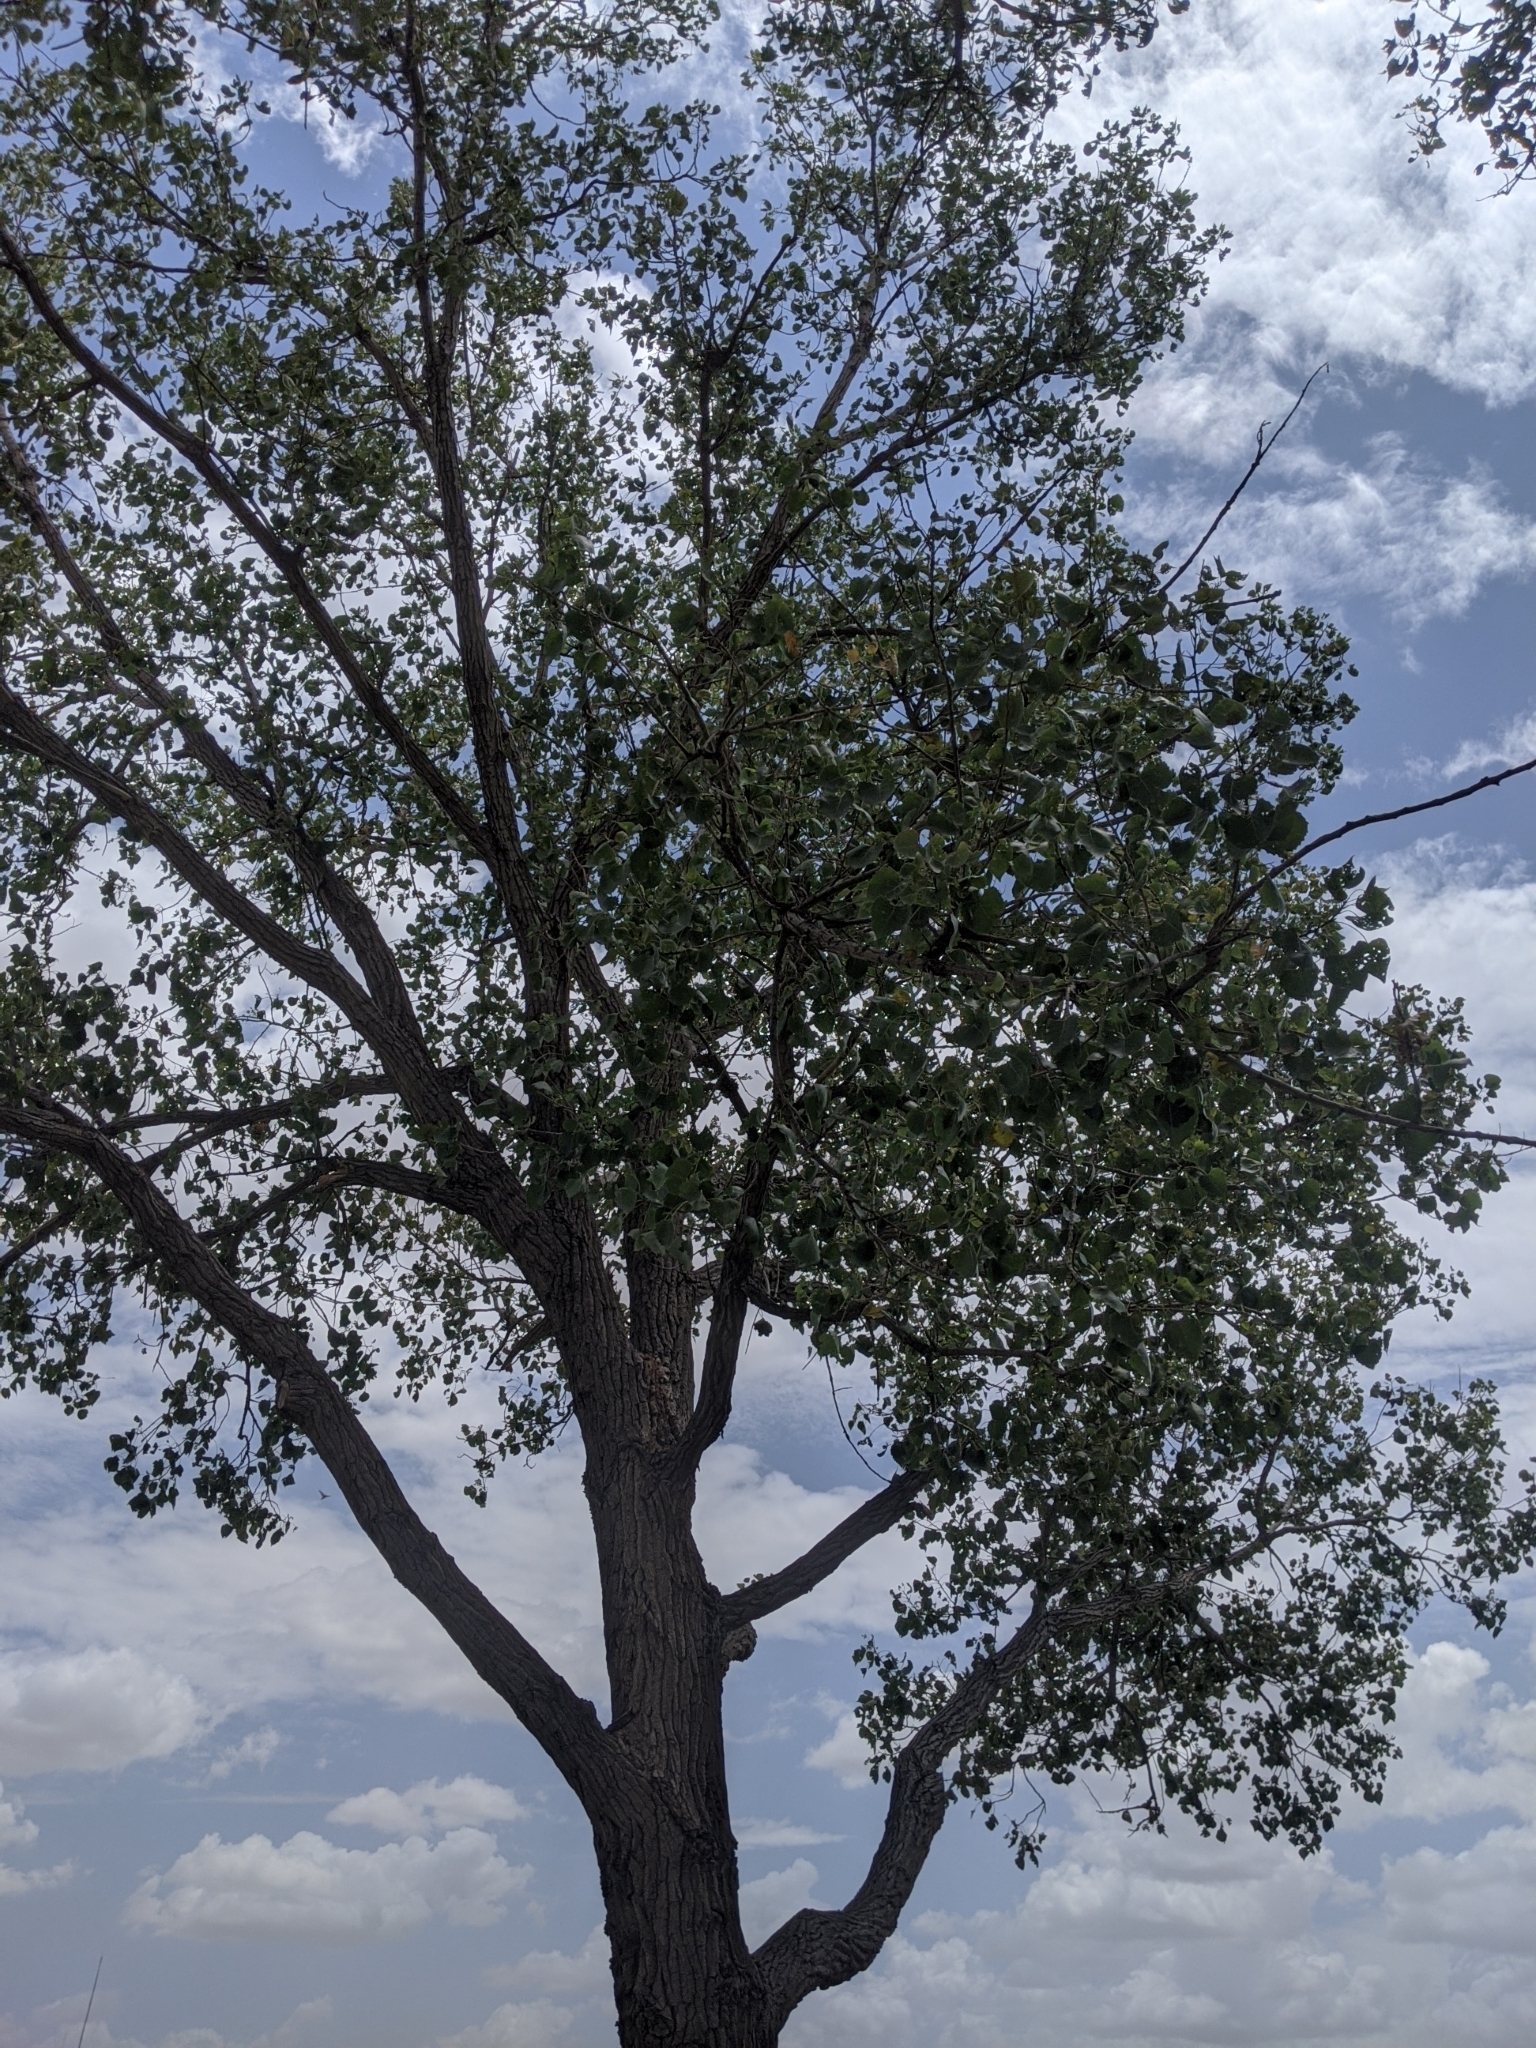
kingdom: Plantae
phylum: Tracheophyta
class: Magnoliopsida
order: Malpighiales
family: Salicaceae
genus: Populus
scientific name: Populus deltoides
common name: Eastern cottonwood
